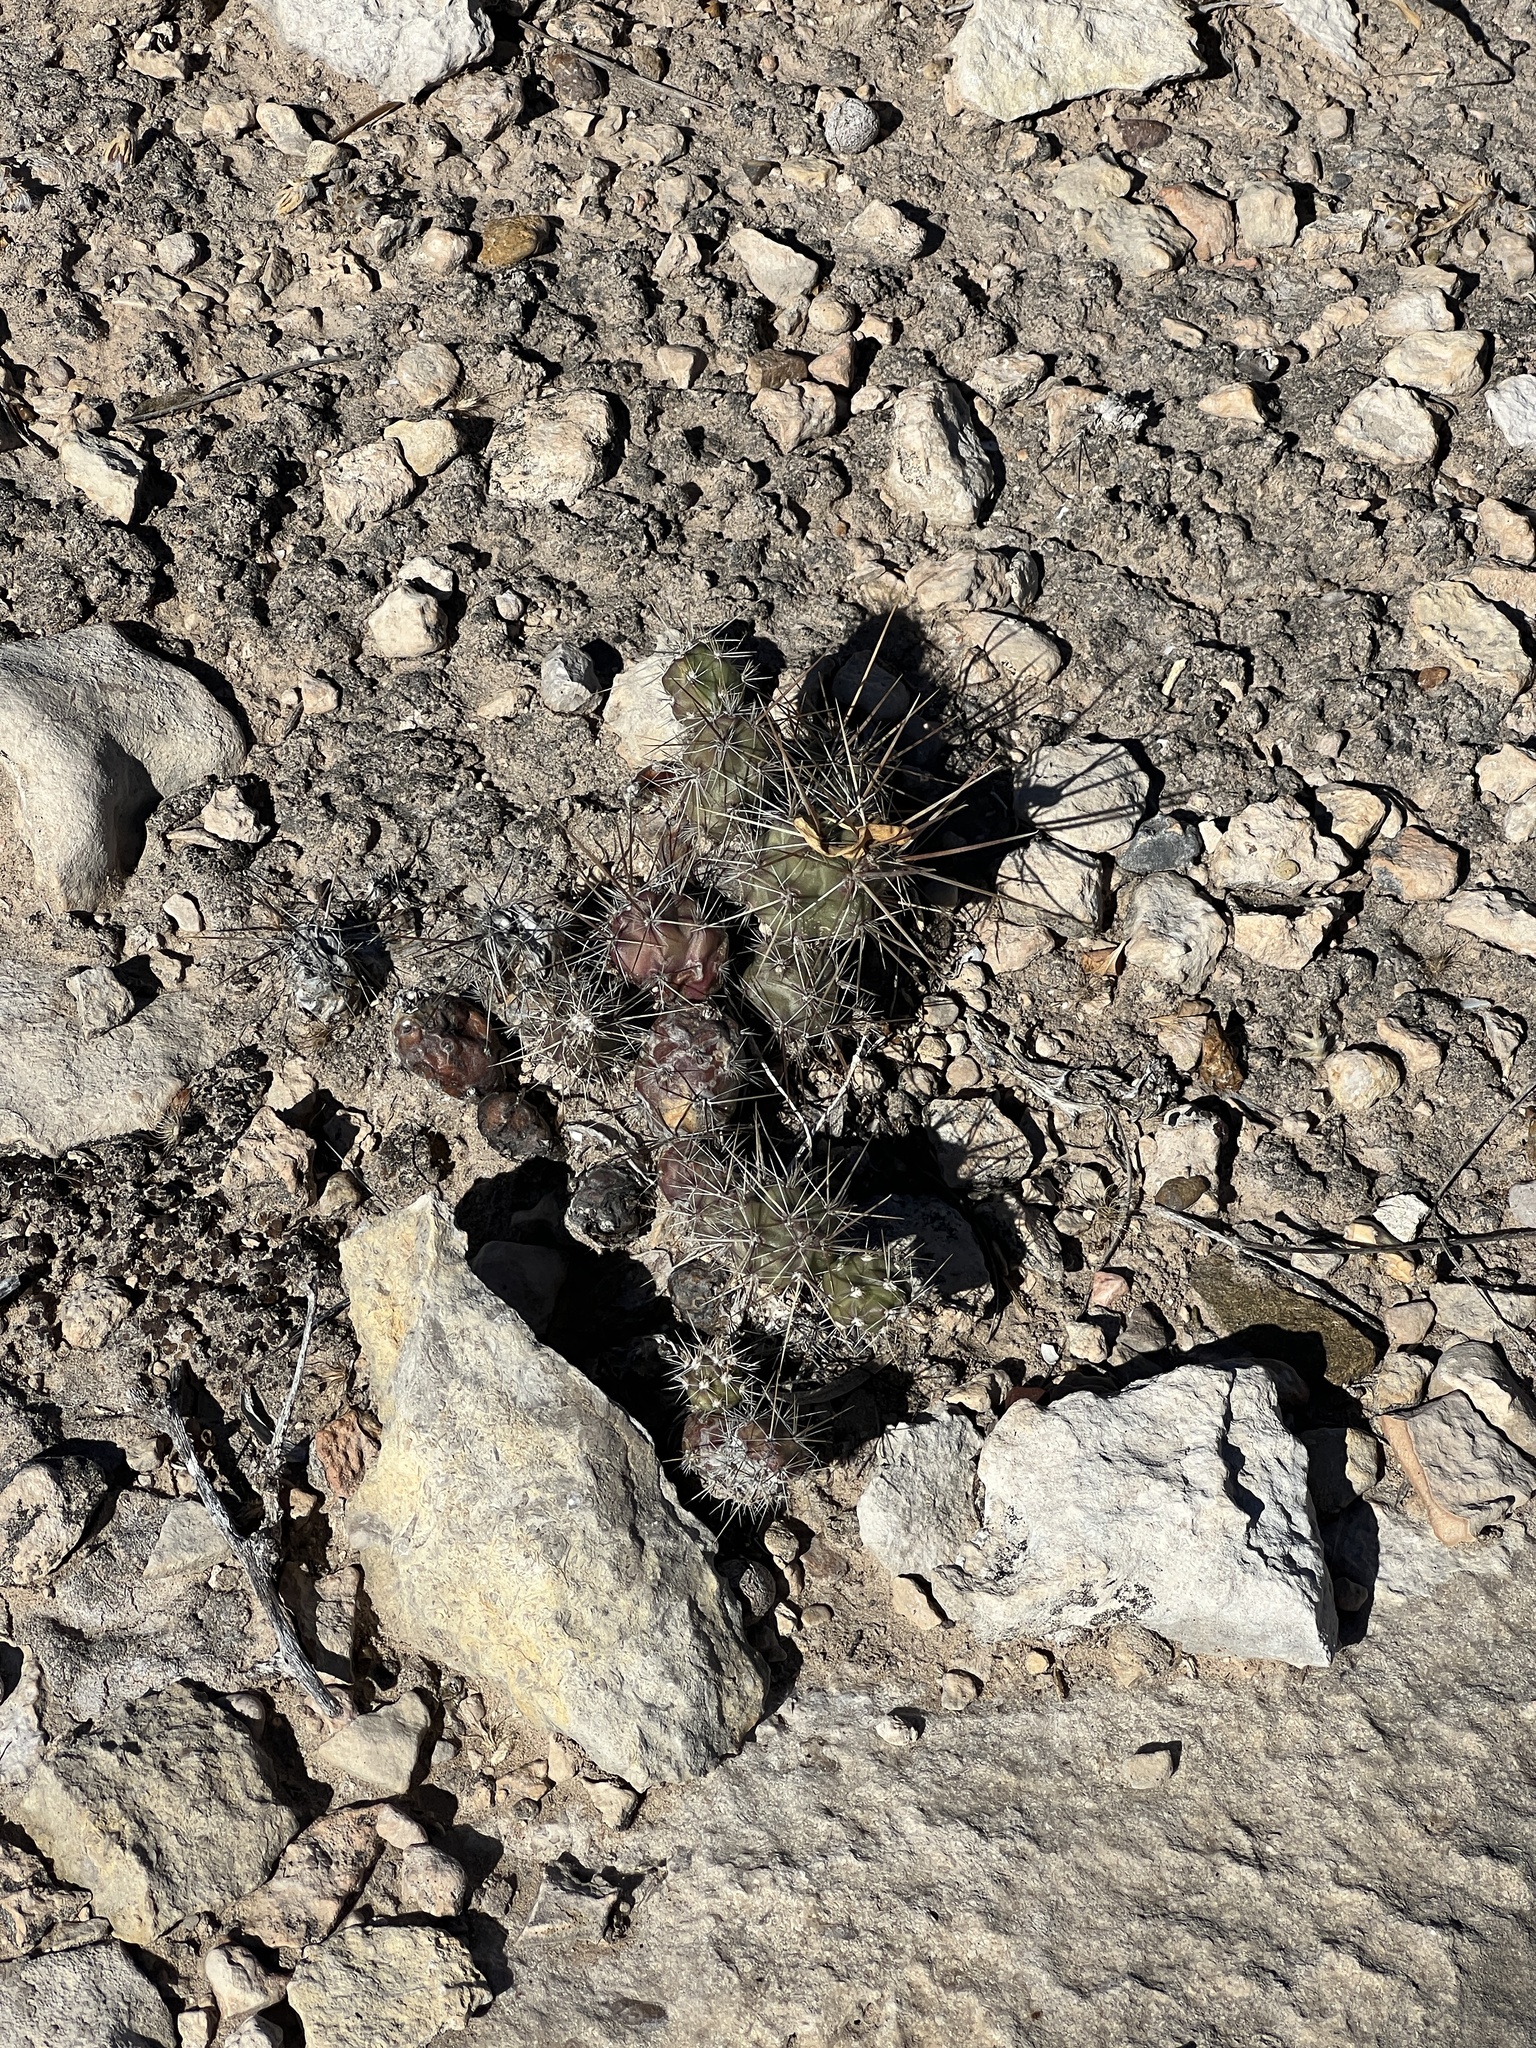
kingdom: Plantae
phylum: Tracheophyta
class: Magnoliopsida
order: Caryophyllales
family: Cactaceae
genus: Grusonia
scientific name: Grusonia schottii
